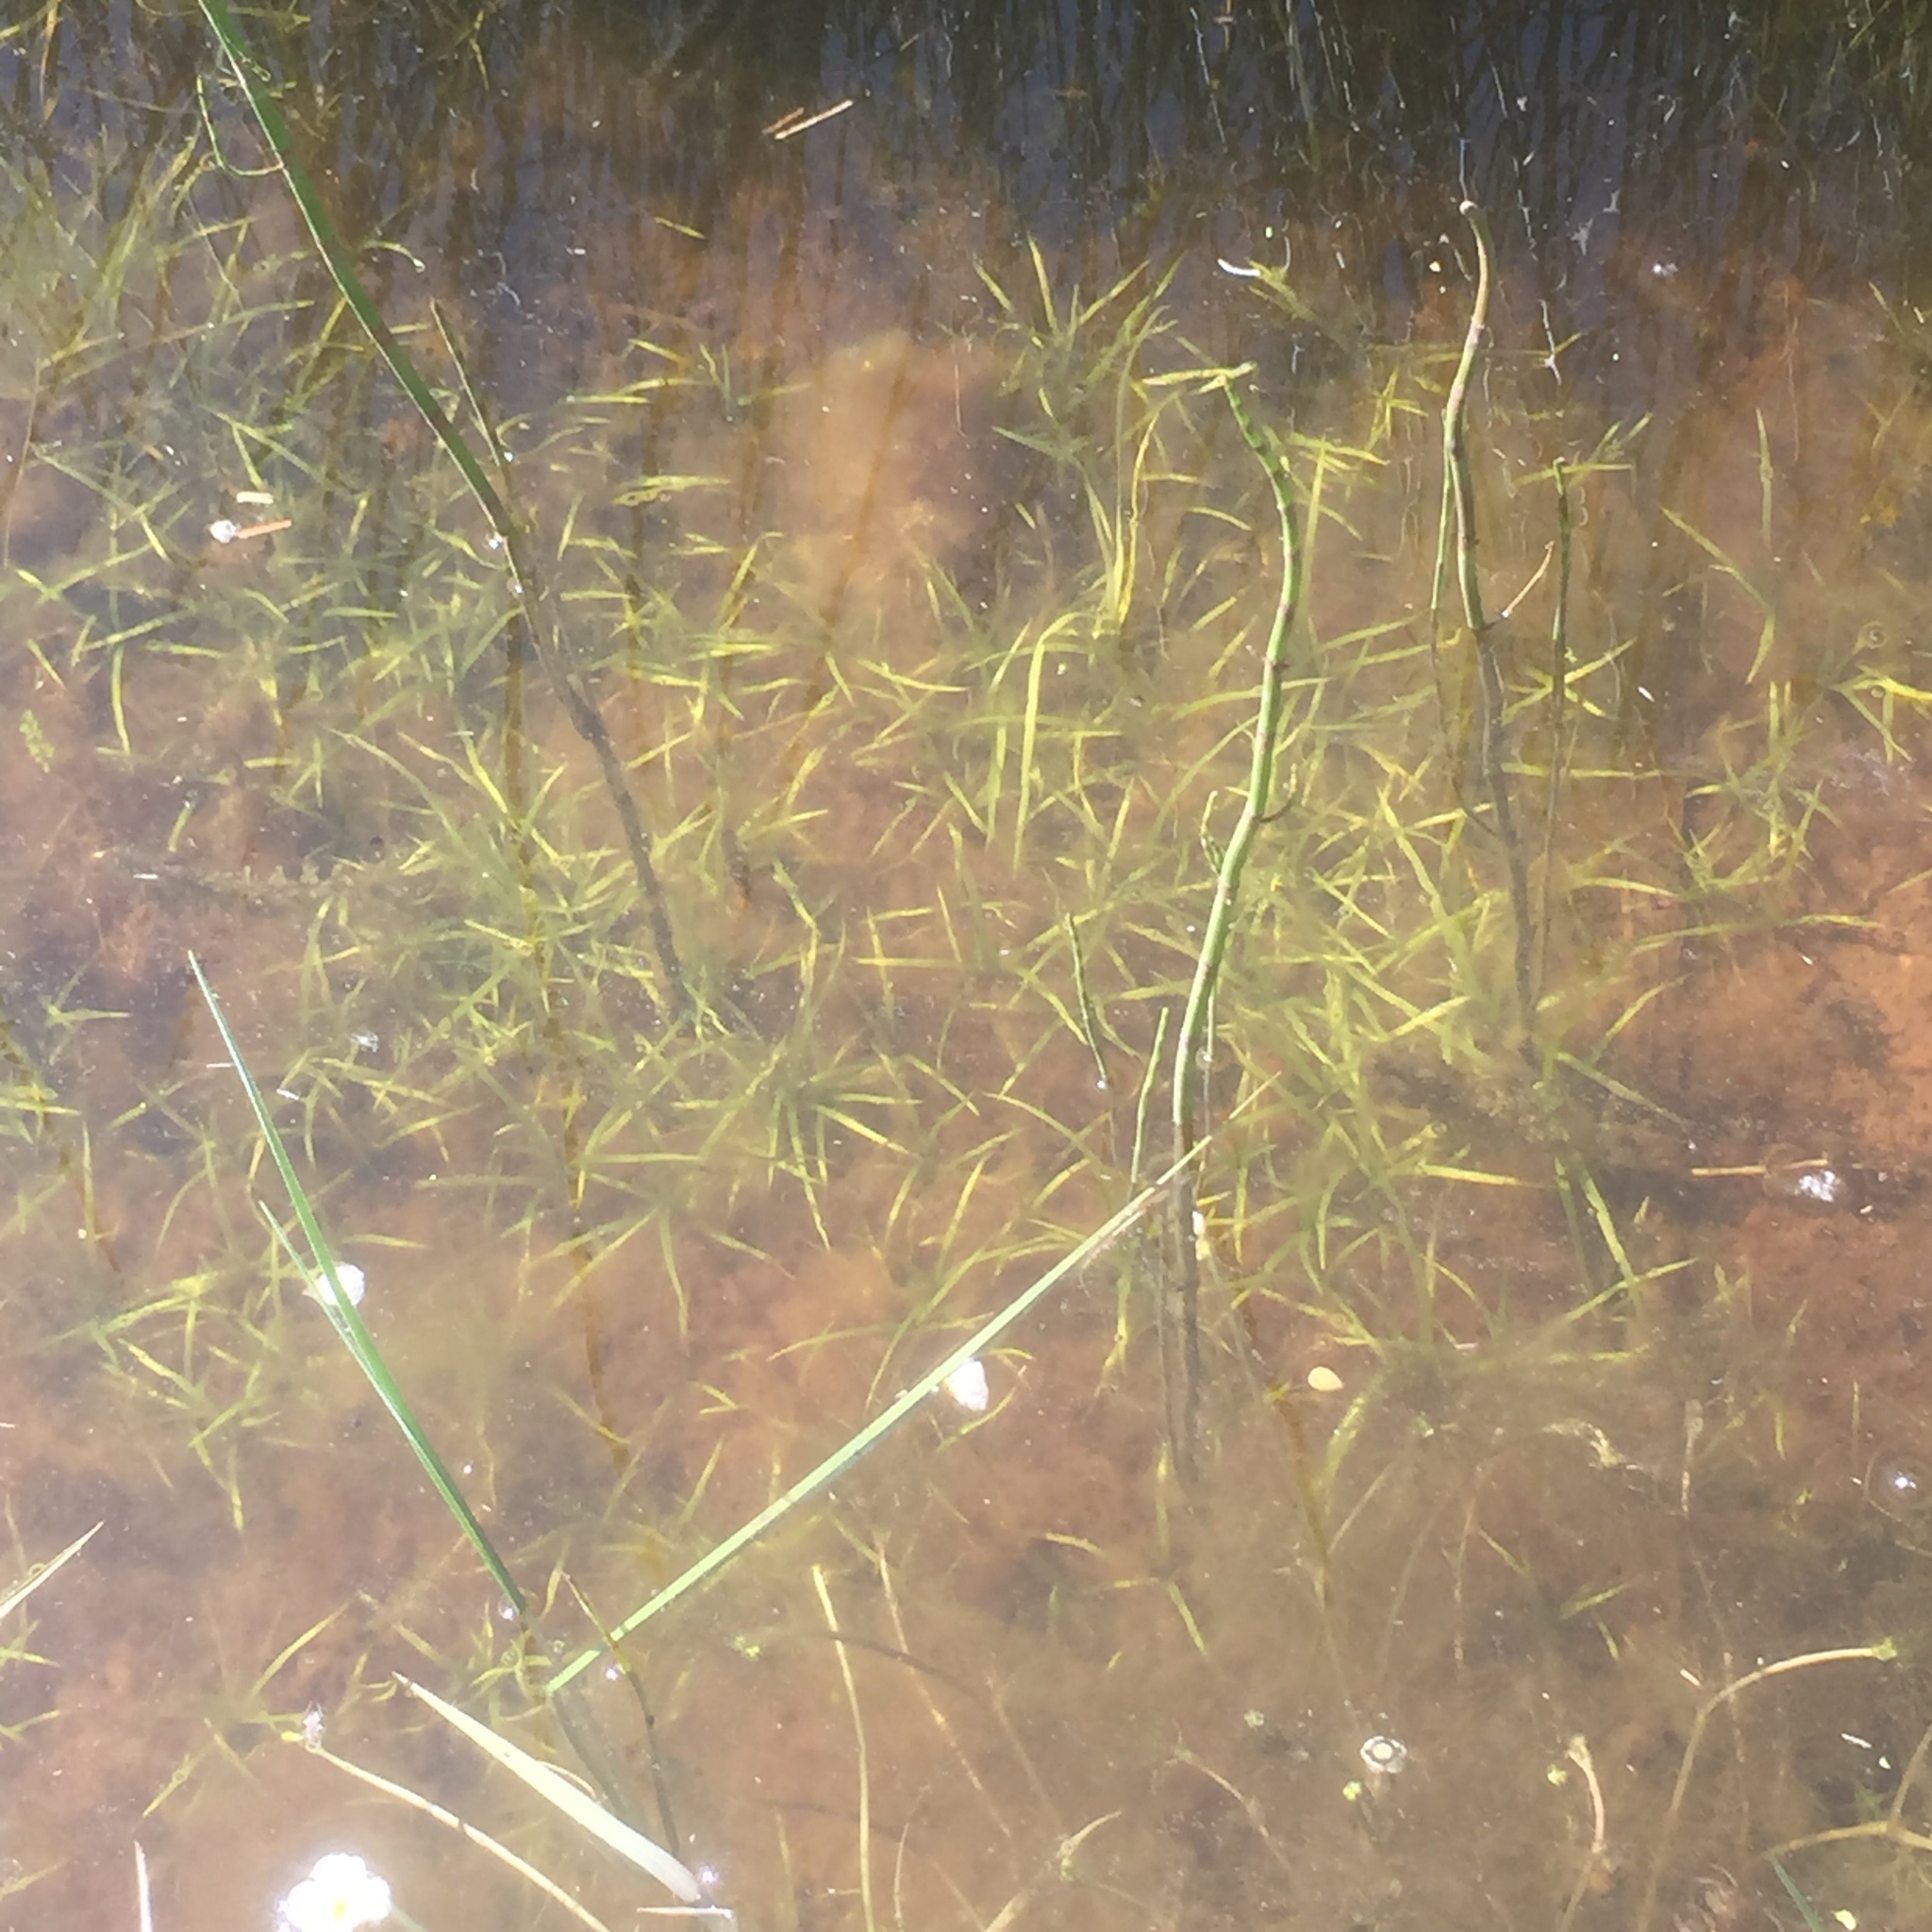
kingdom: Plantae
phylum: Tracheophyta
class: Polypodiopsida
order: Equisetales
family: Equisetaceae
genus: Equisetum
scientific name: Equisetum fluviatile
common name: Water horsetail
